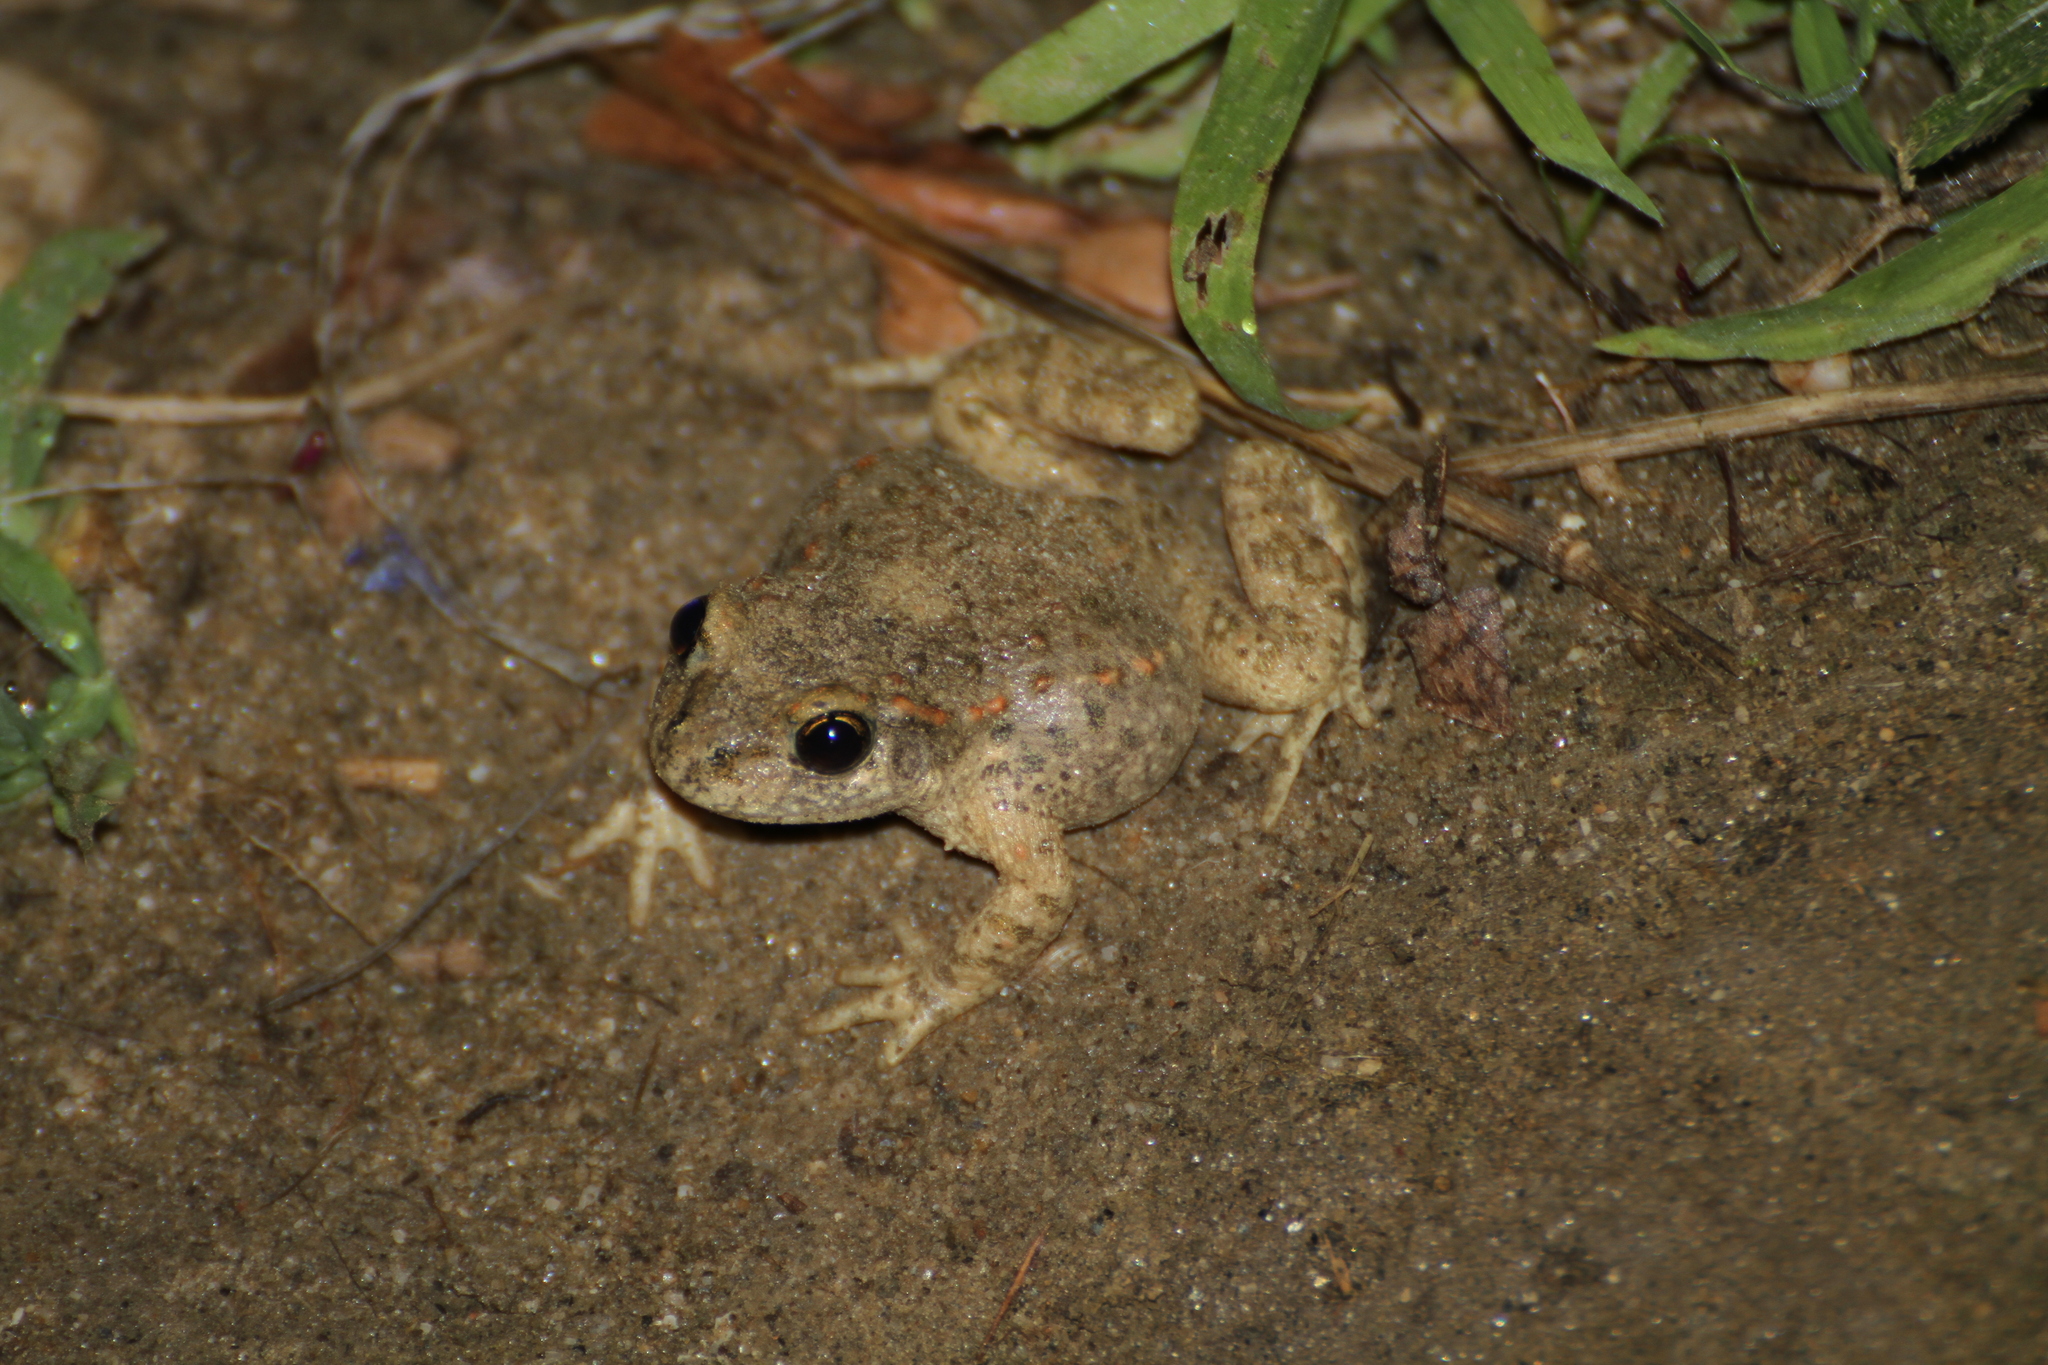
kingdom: Animalia
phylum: Chordata
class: Amphibia
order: Anura
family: Alytidae
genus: Alytes
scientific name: Alytes obstetricans
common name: Midwife toad
